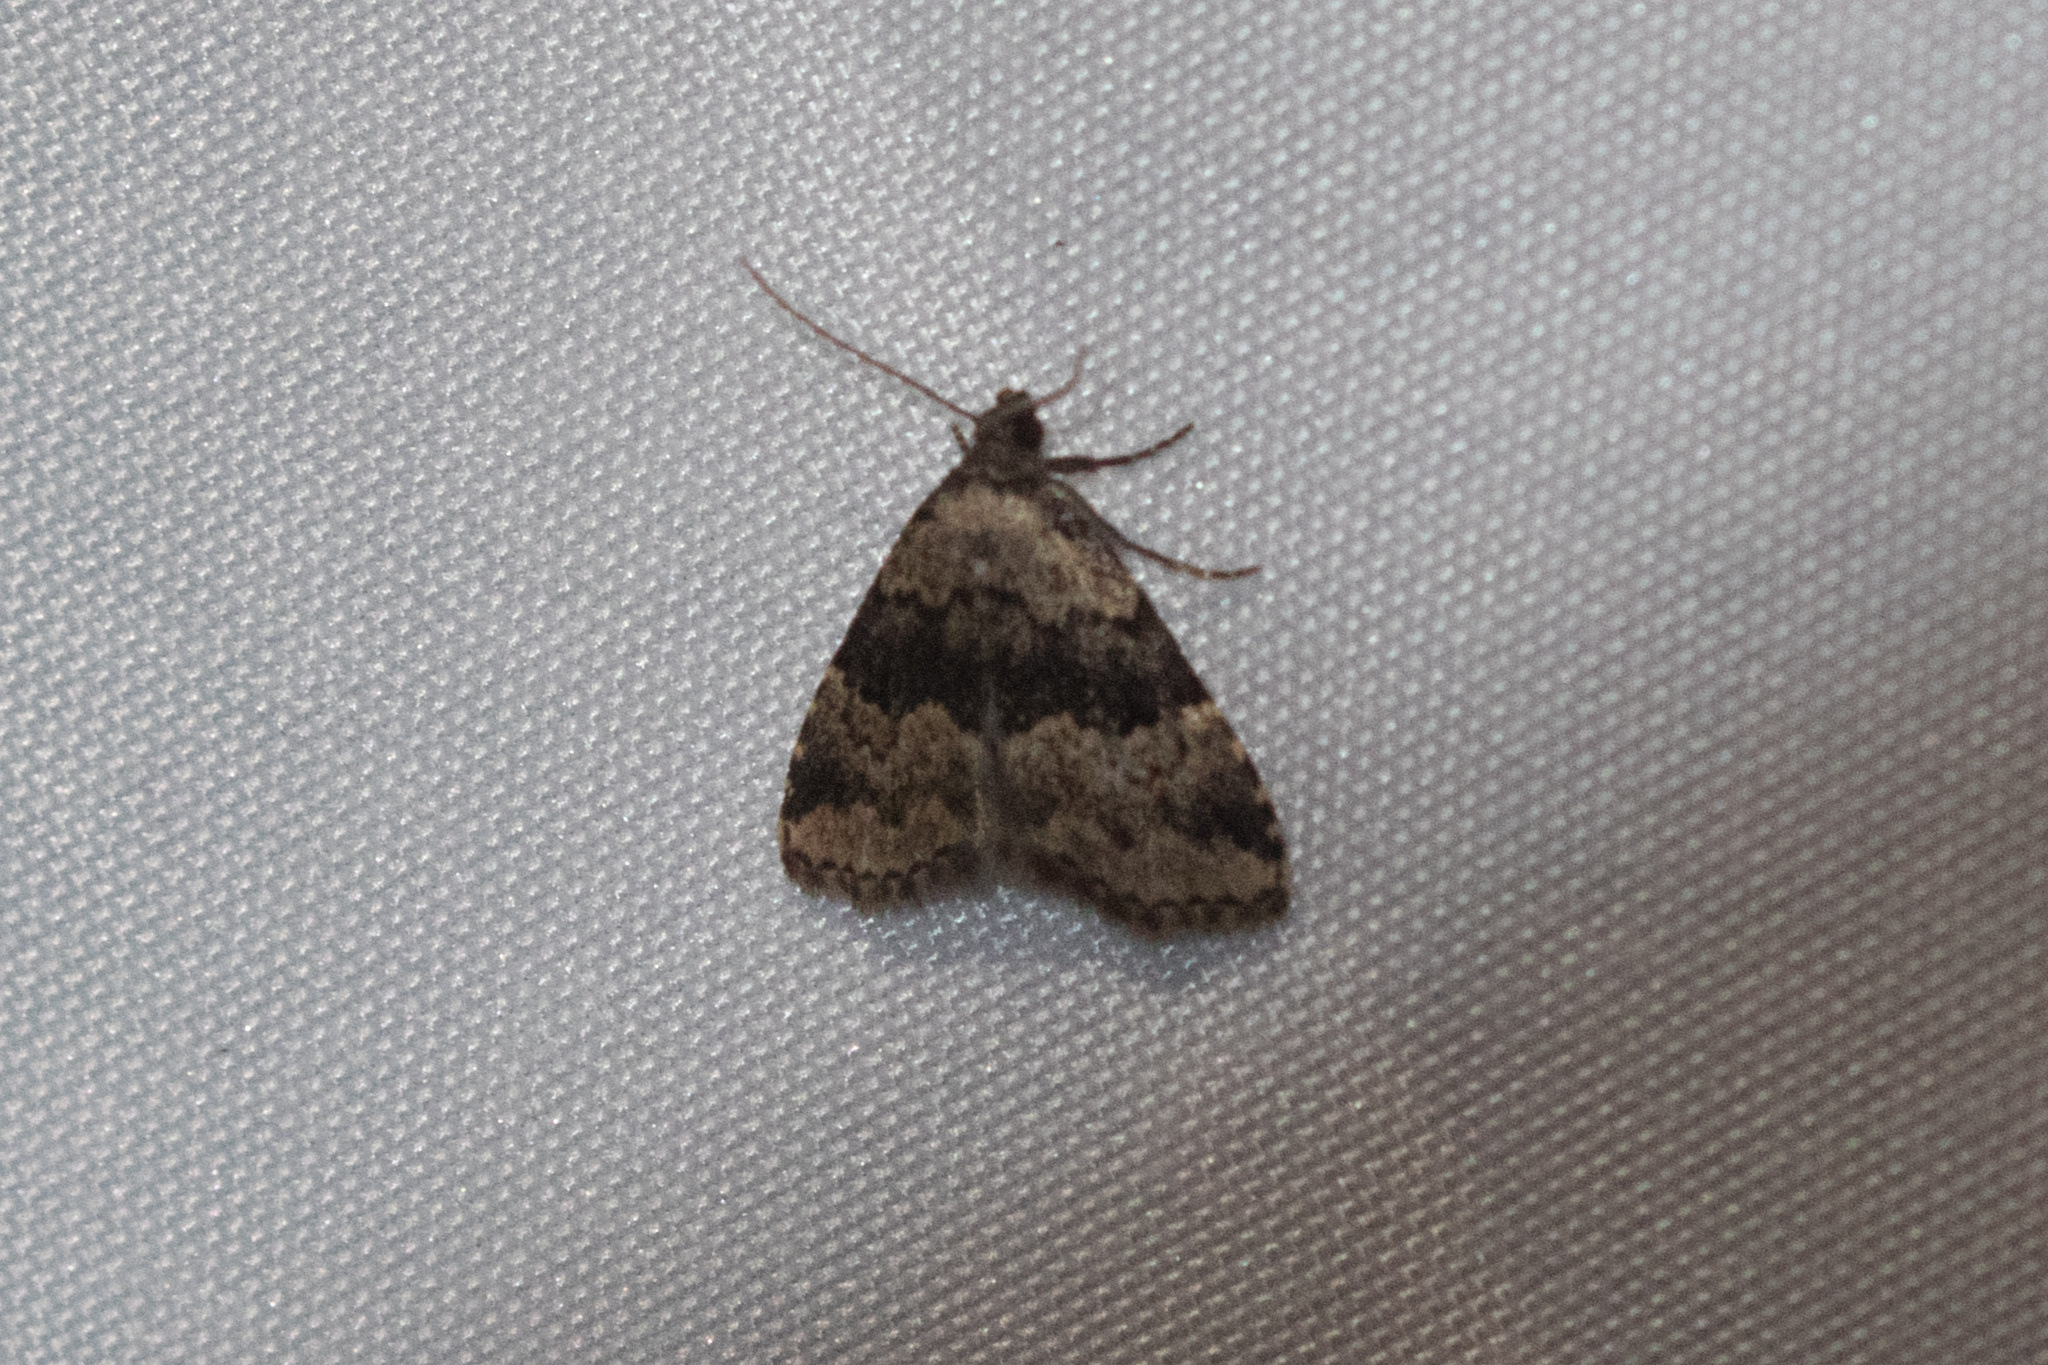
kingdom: Animalia
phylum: Arthropoda
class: Insecta
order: Lepidoptera
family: Erebidae
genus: Dyspyralis
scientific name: Dyspyralis illocata
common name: Visitation moth
